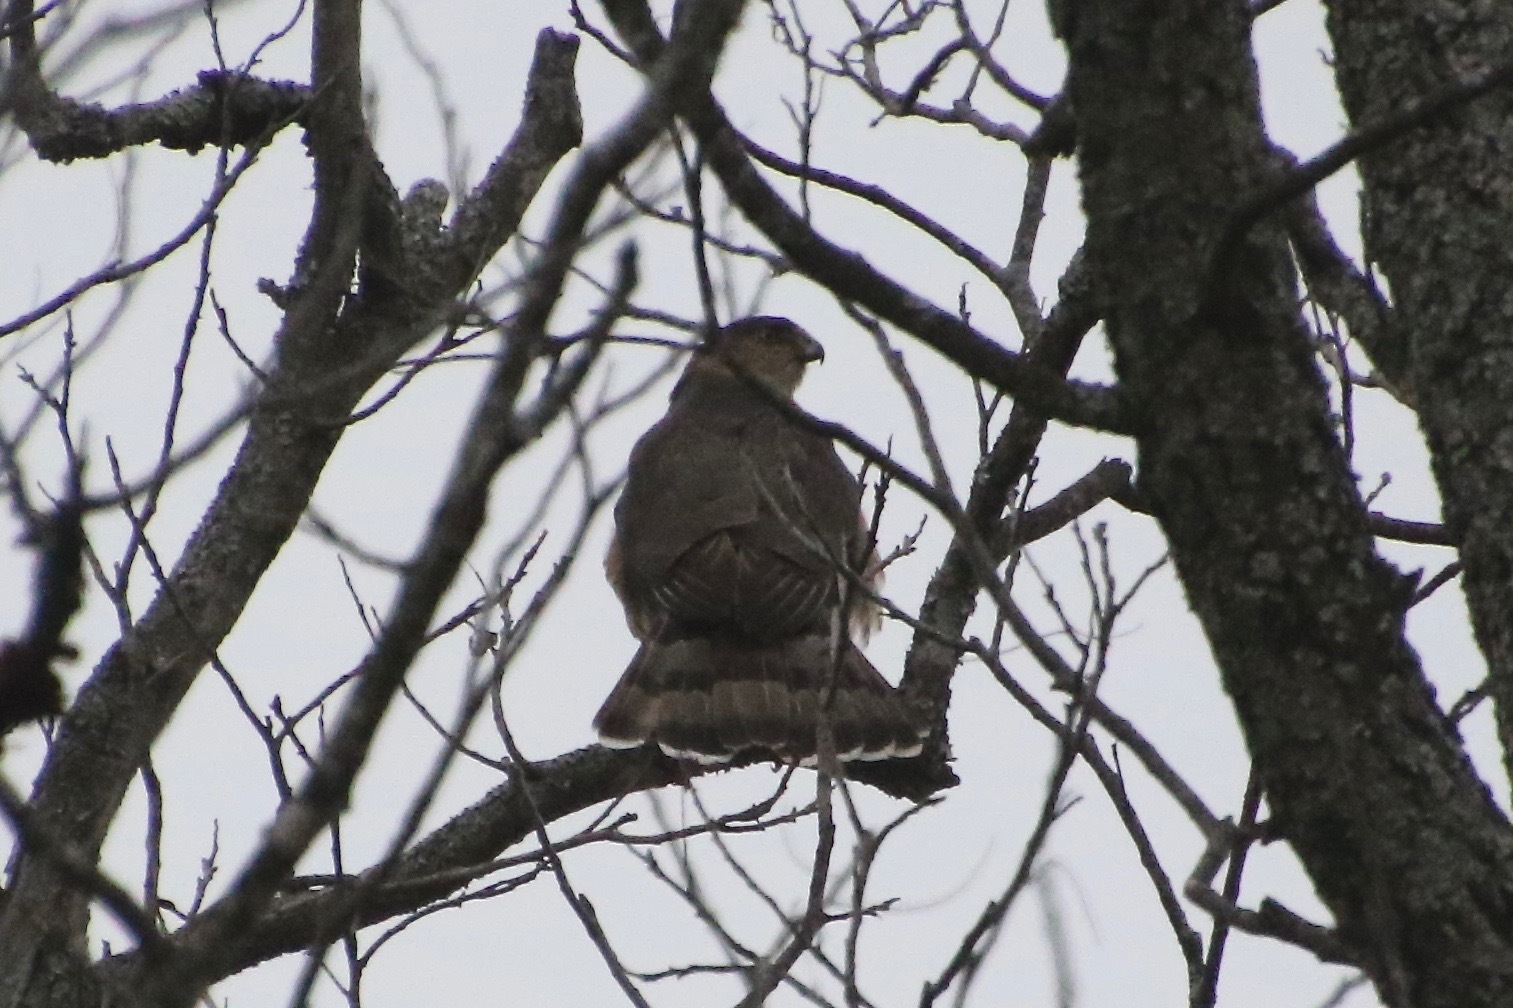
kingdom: Animalia
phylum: Chordata
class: Aves
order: Accipitriformes
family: Accipitridae
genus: Accipiter
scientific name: Accipiter cooperii
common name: Cooper's hawk
